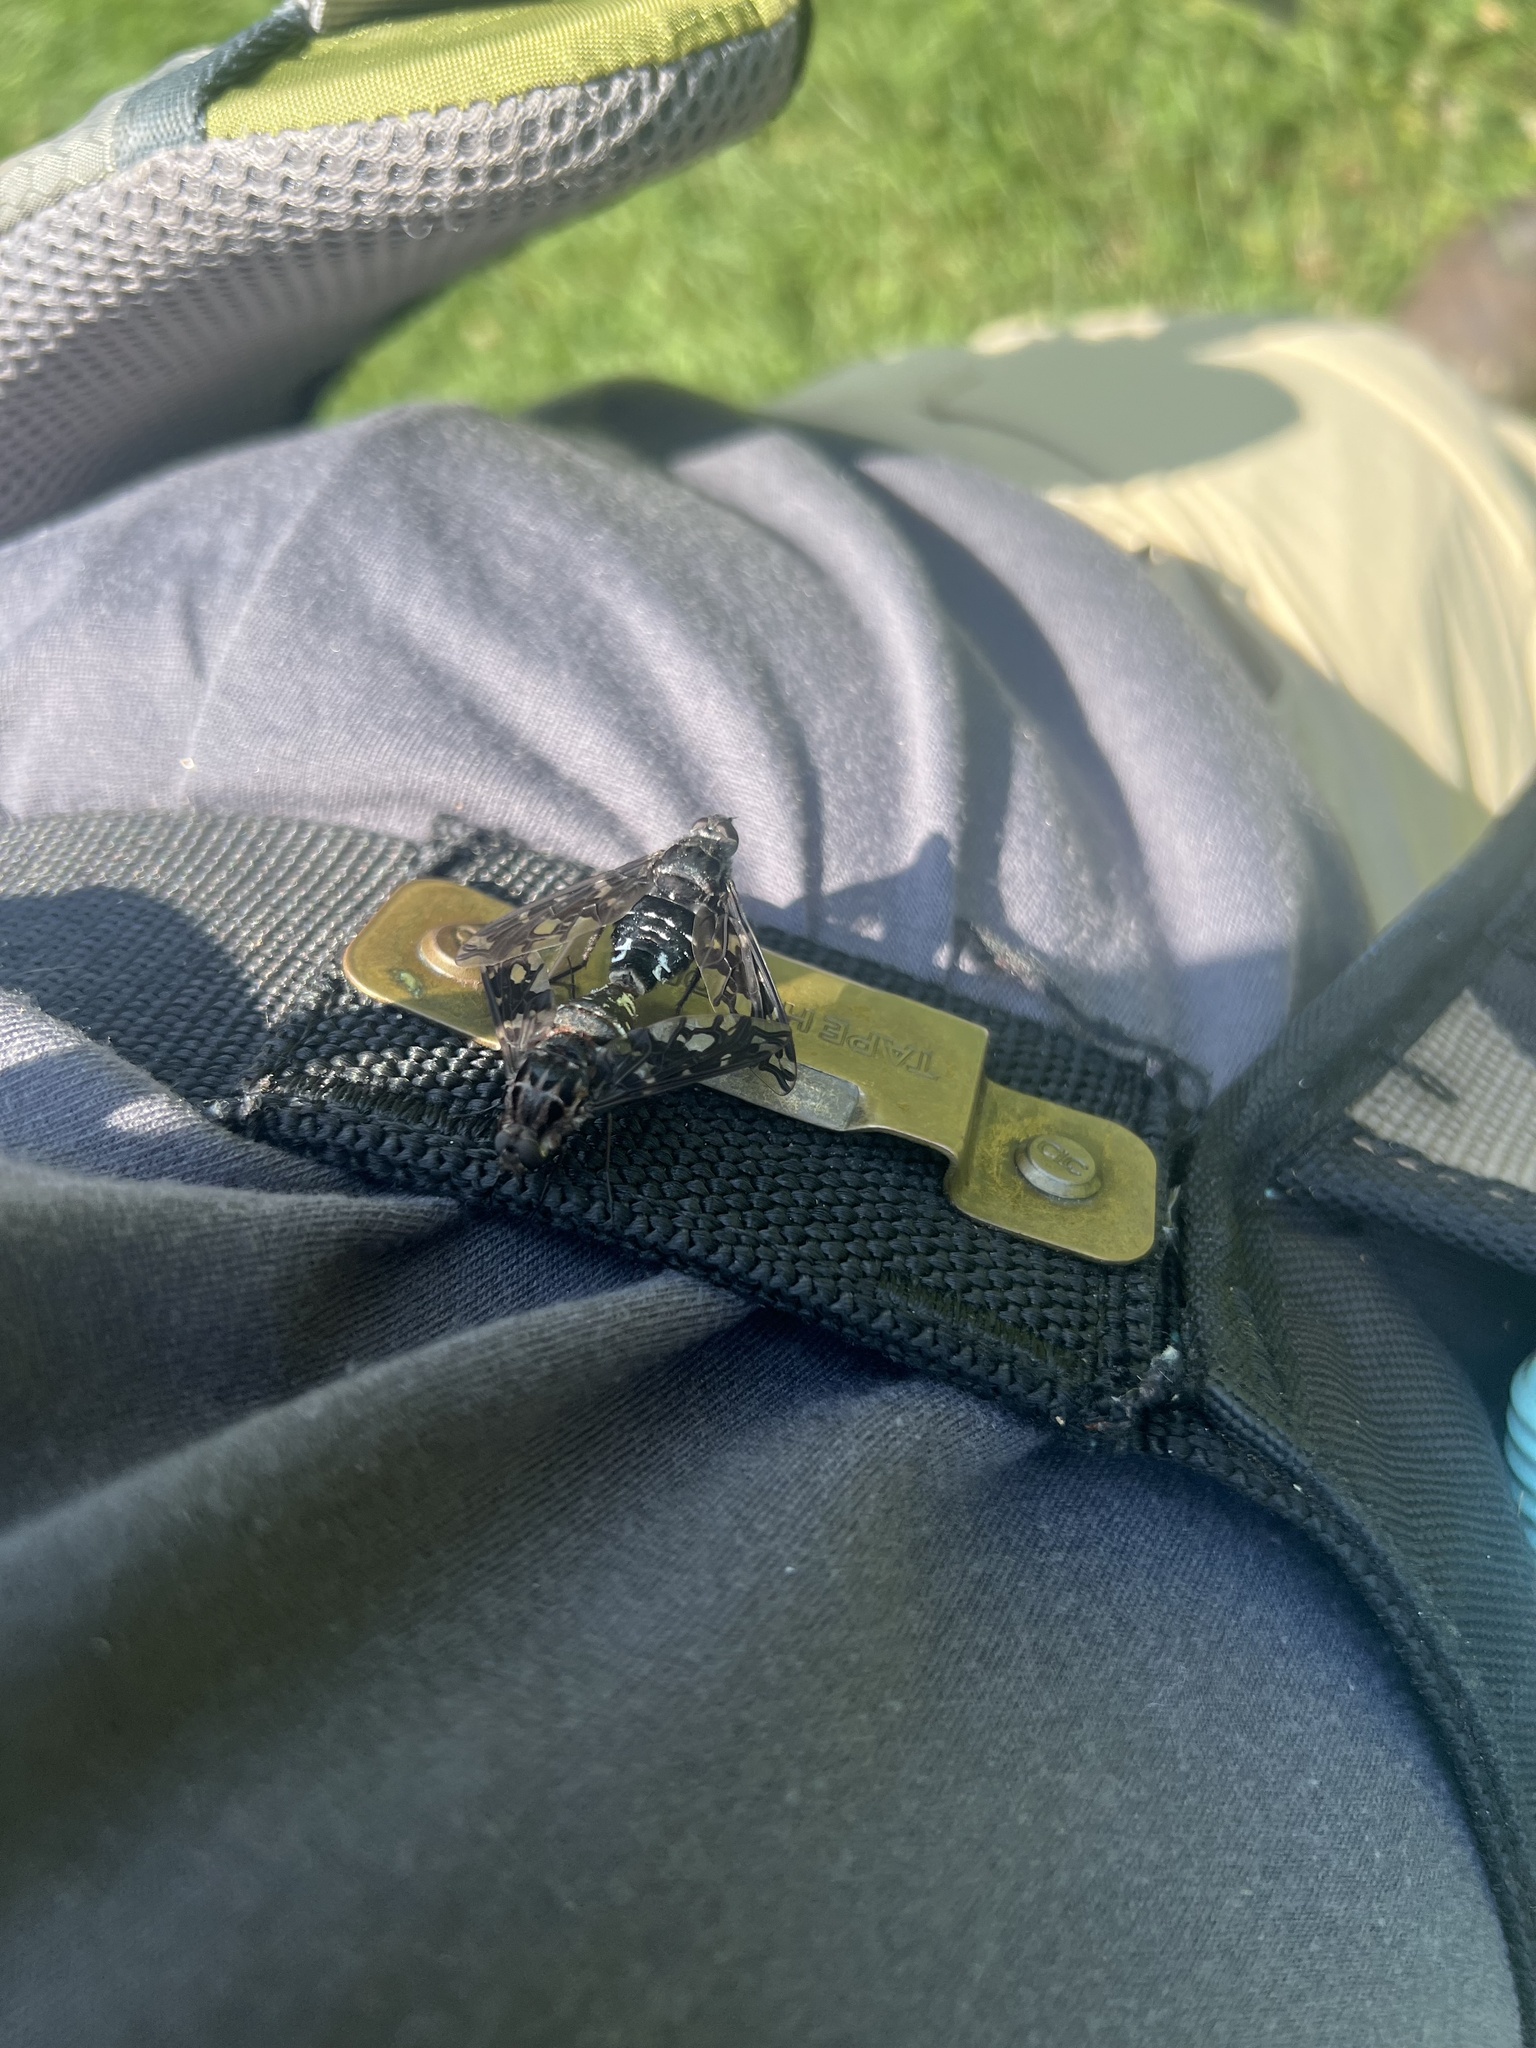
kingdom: Animalia
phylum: Arthropoda
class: Insecta
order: Diptera
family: Bombyliidae
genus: Xenox
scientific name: Xenox tigrinus
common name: Tiger bee fly
